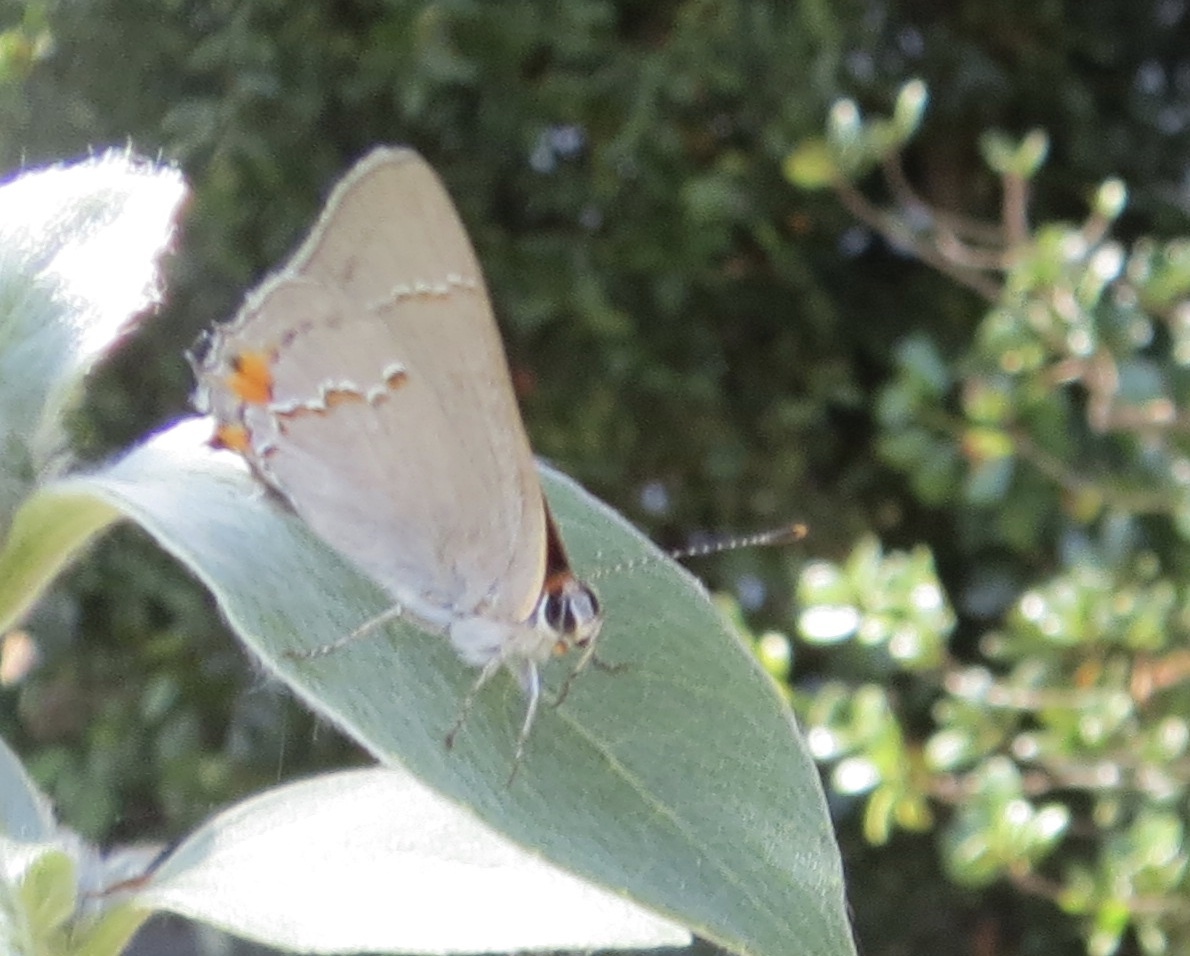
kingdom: Animalia
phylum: Arthropoda
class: Insecta
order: Lepidoptera
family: Lycaenidae
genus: Strymon
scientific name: Strymon melinus
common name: Gray hairstreak
